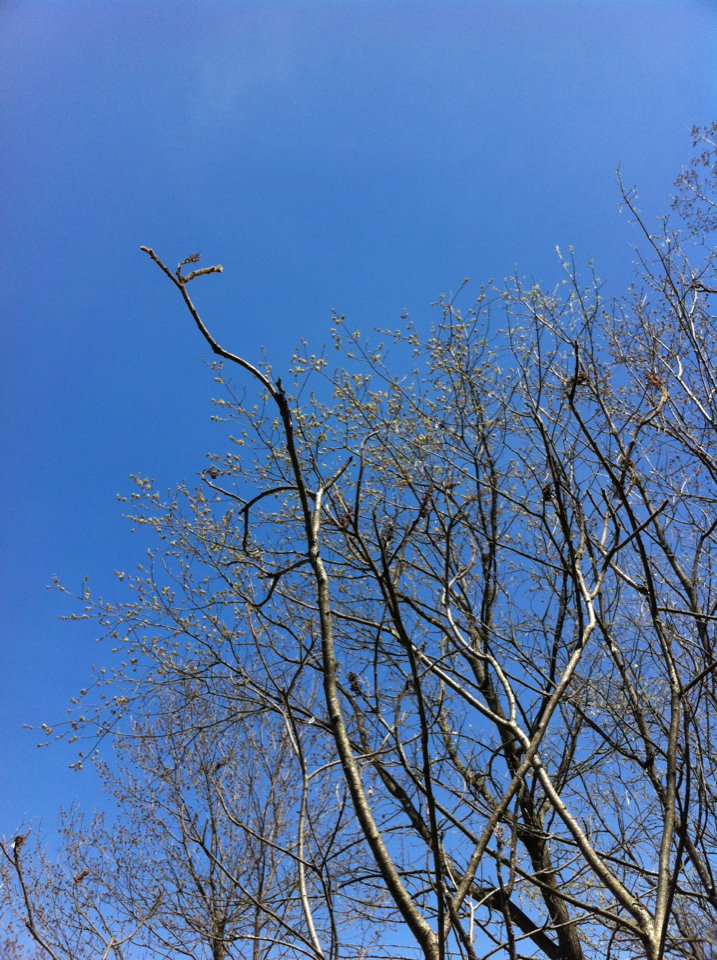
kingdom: Plantae
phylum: Tracheophyta
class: Magnoliopsida
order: Sapindales
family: Anacardiaceae
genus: Rhus
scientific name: Rhus typhina
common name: Staghorn sumac
